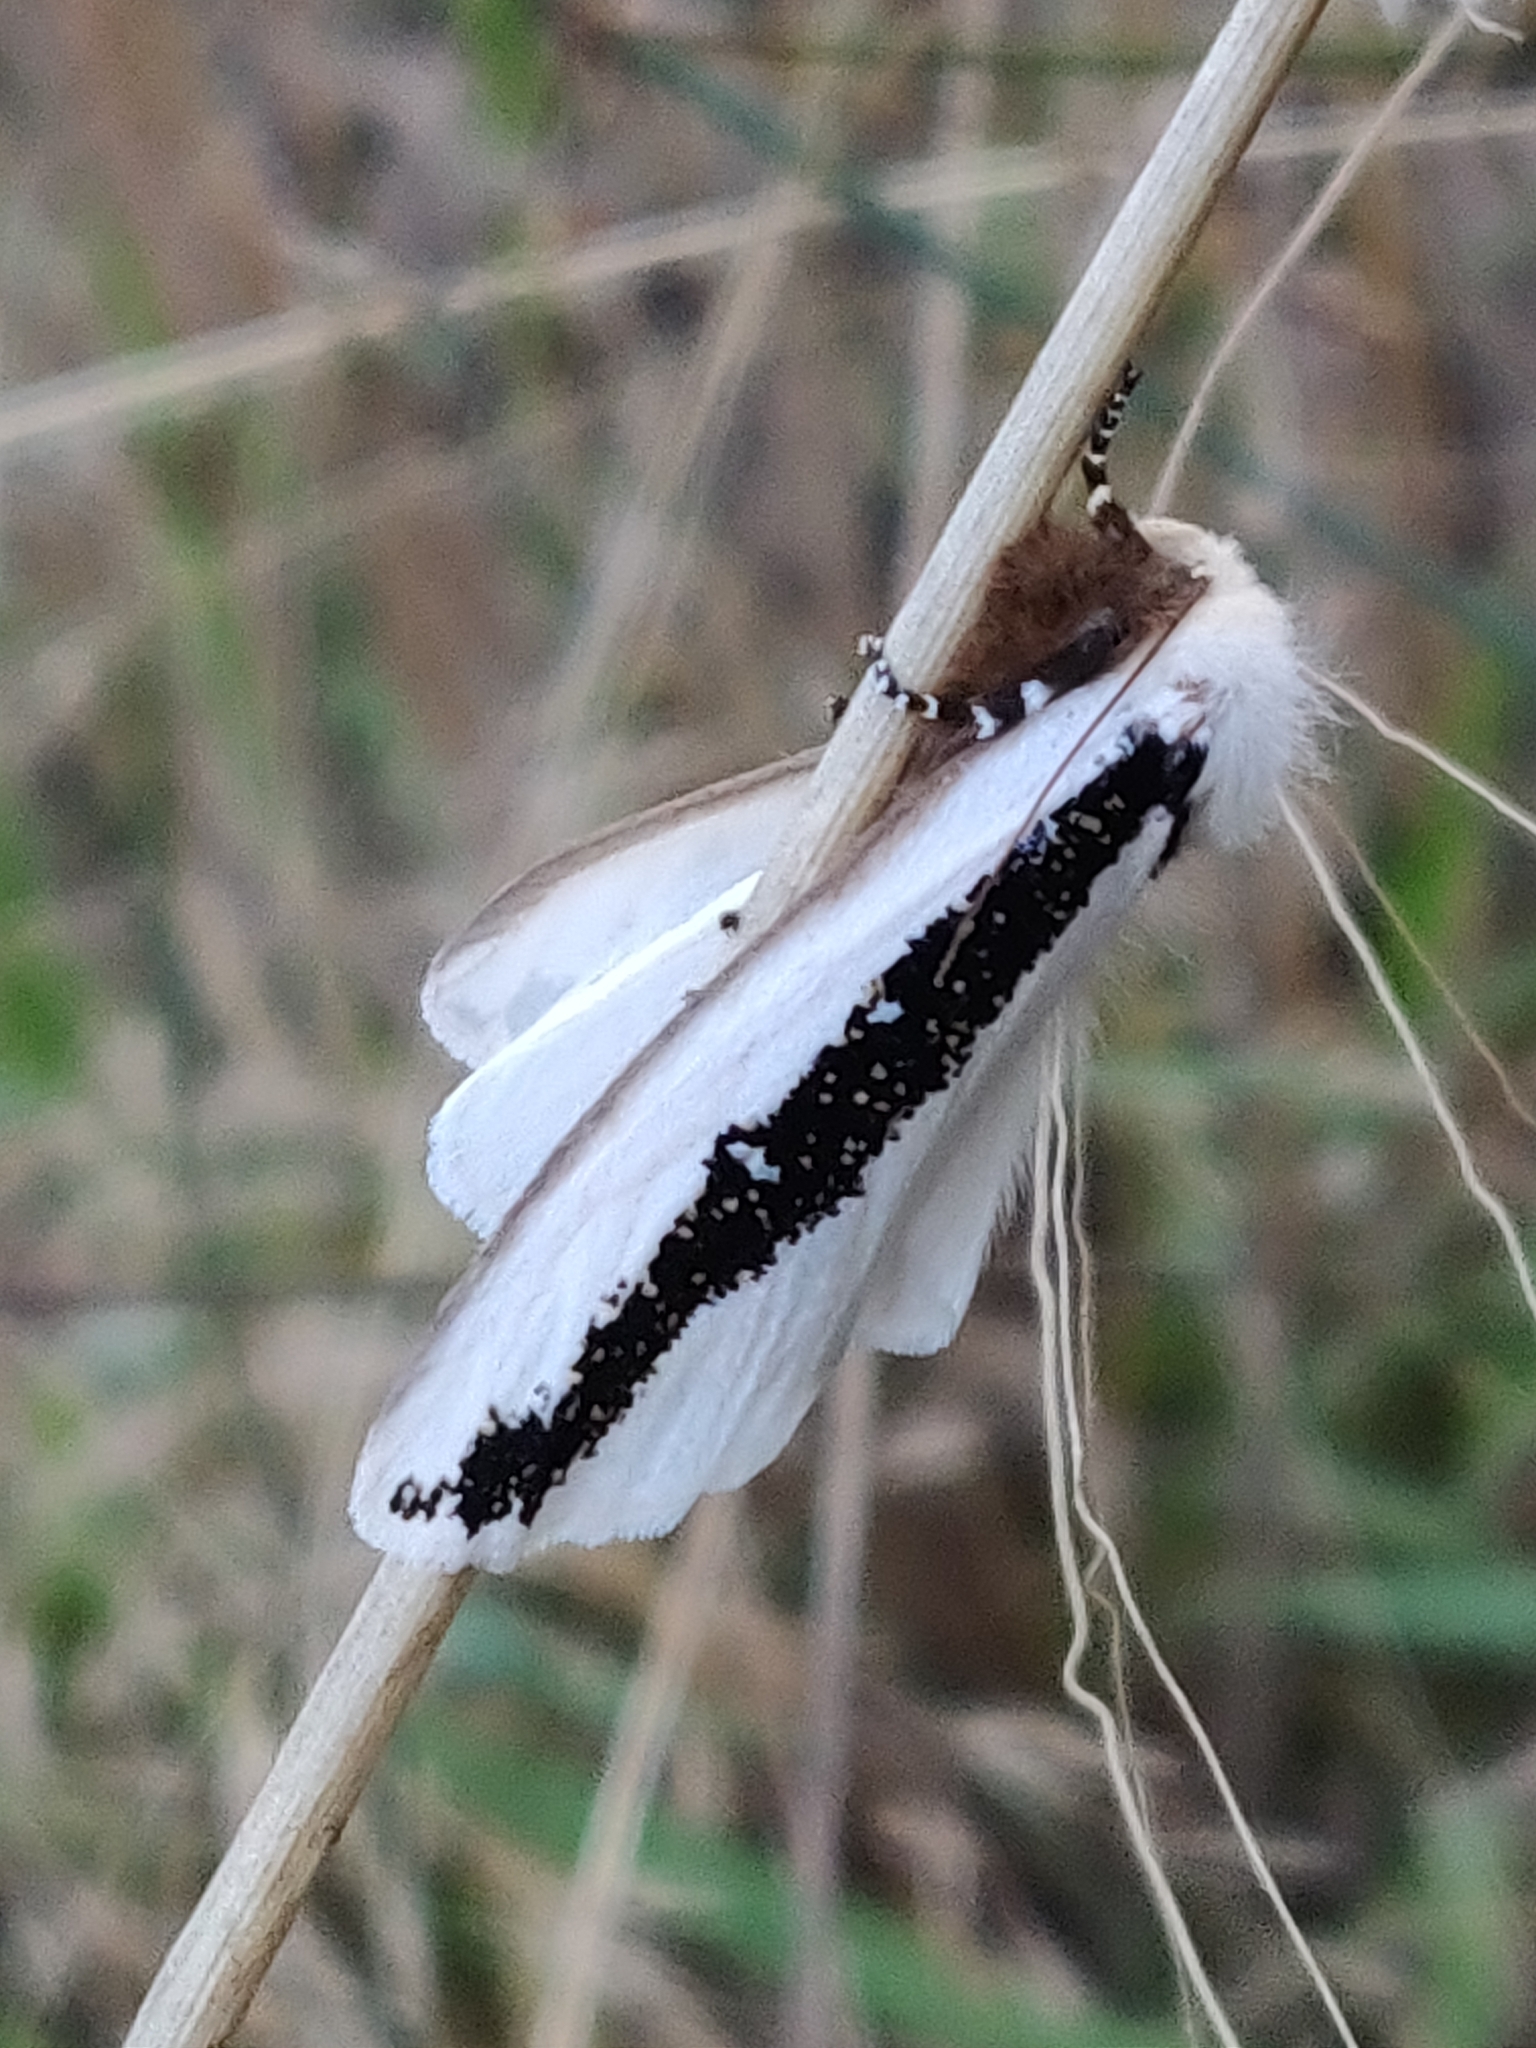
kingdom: Animalia
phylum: Arthropoda
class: Insecta
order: Lepidoptera
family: Oenosandridae
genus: Oenosandra
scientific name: Oenosandra boisduvalii
